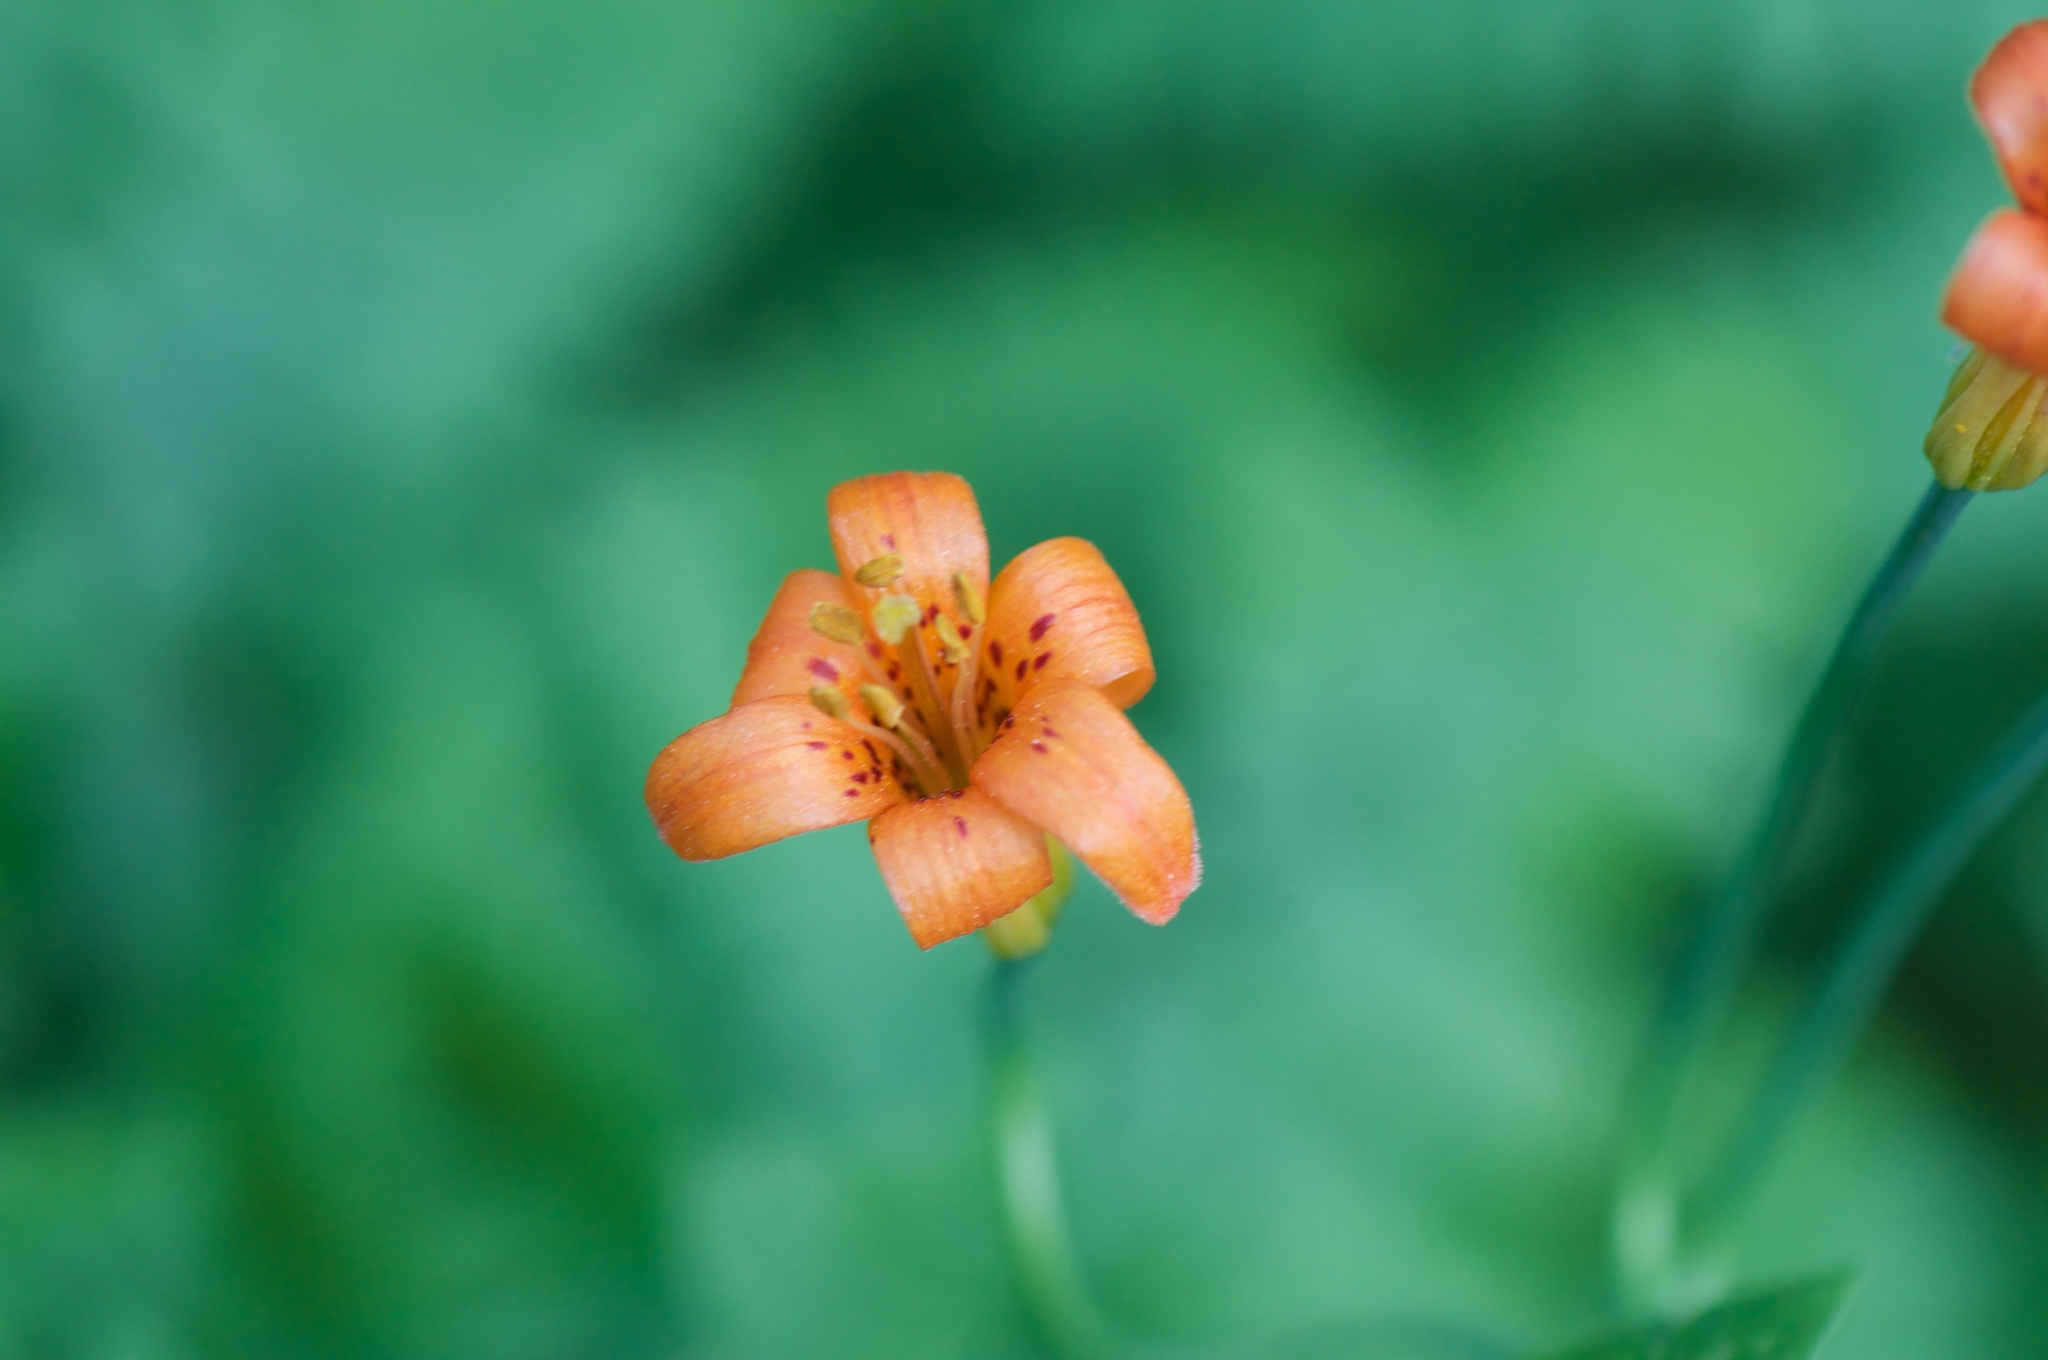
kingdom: Plantae
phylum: Tracheophyta
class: Liliopsida
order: Liliales
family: Liliaceae
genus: Lilium
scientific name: Lilium parvum
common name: Alpine lily
